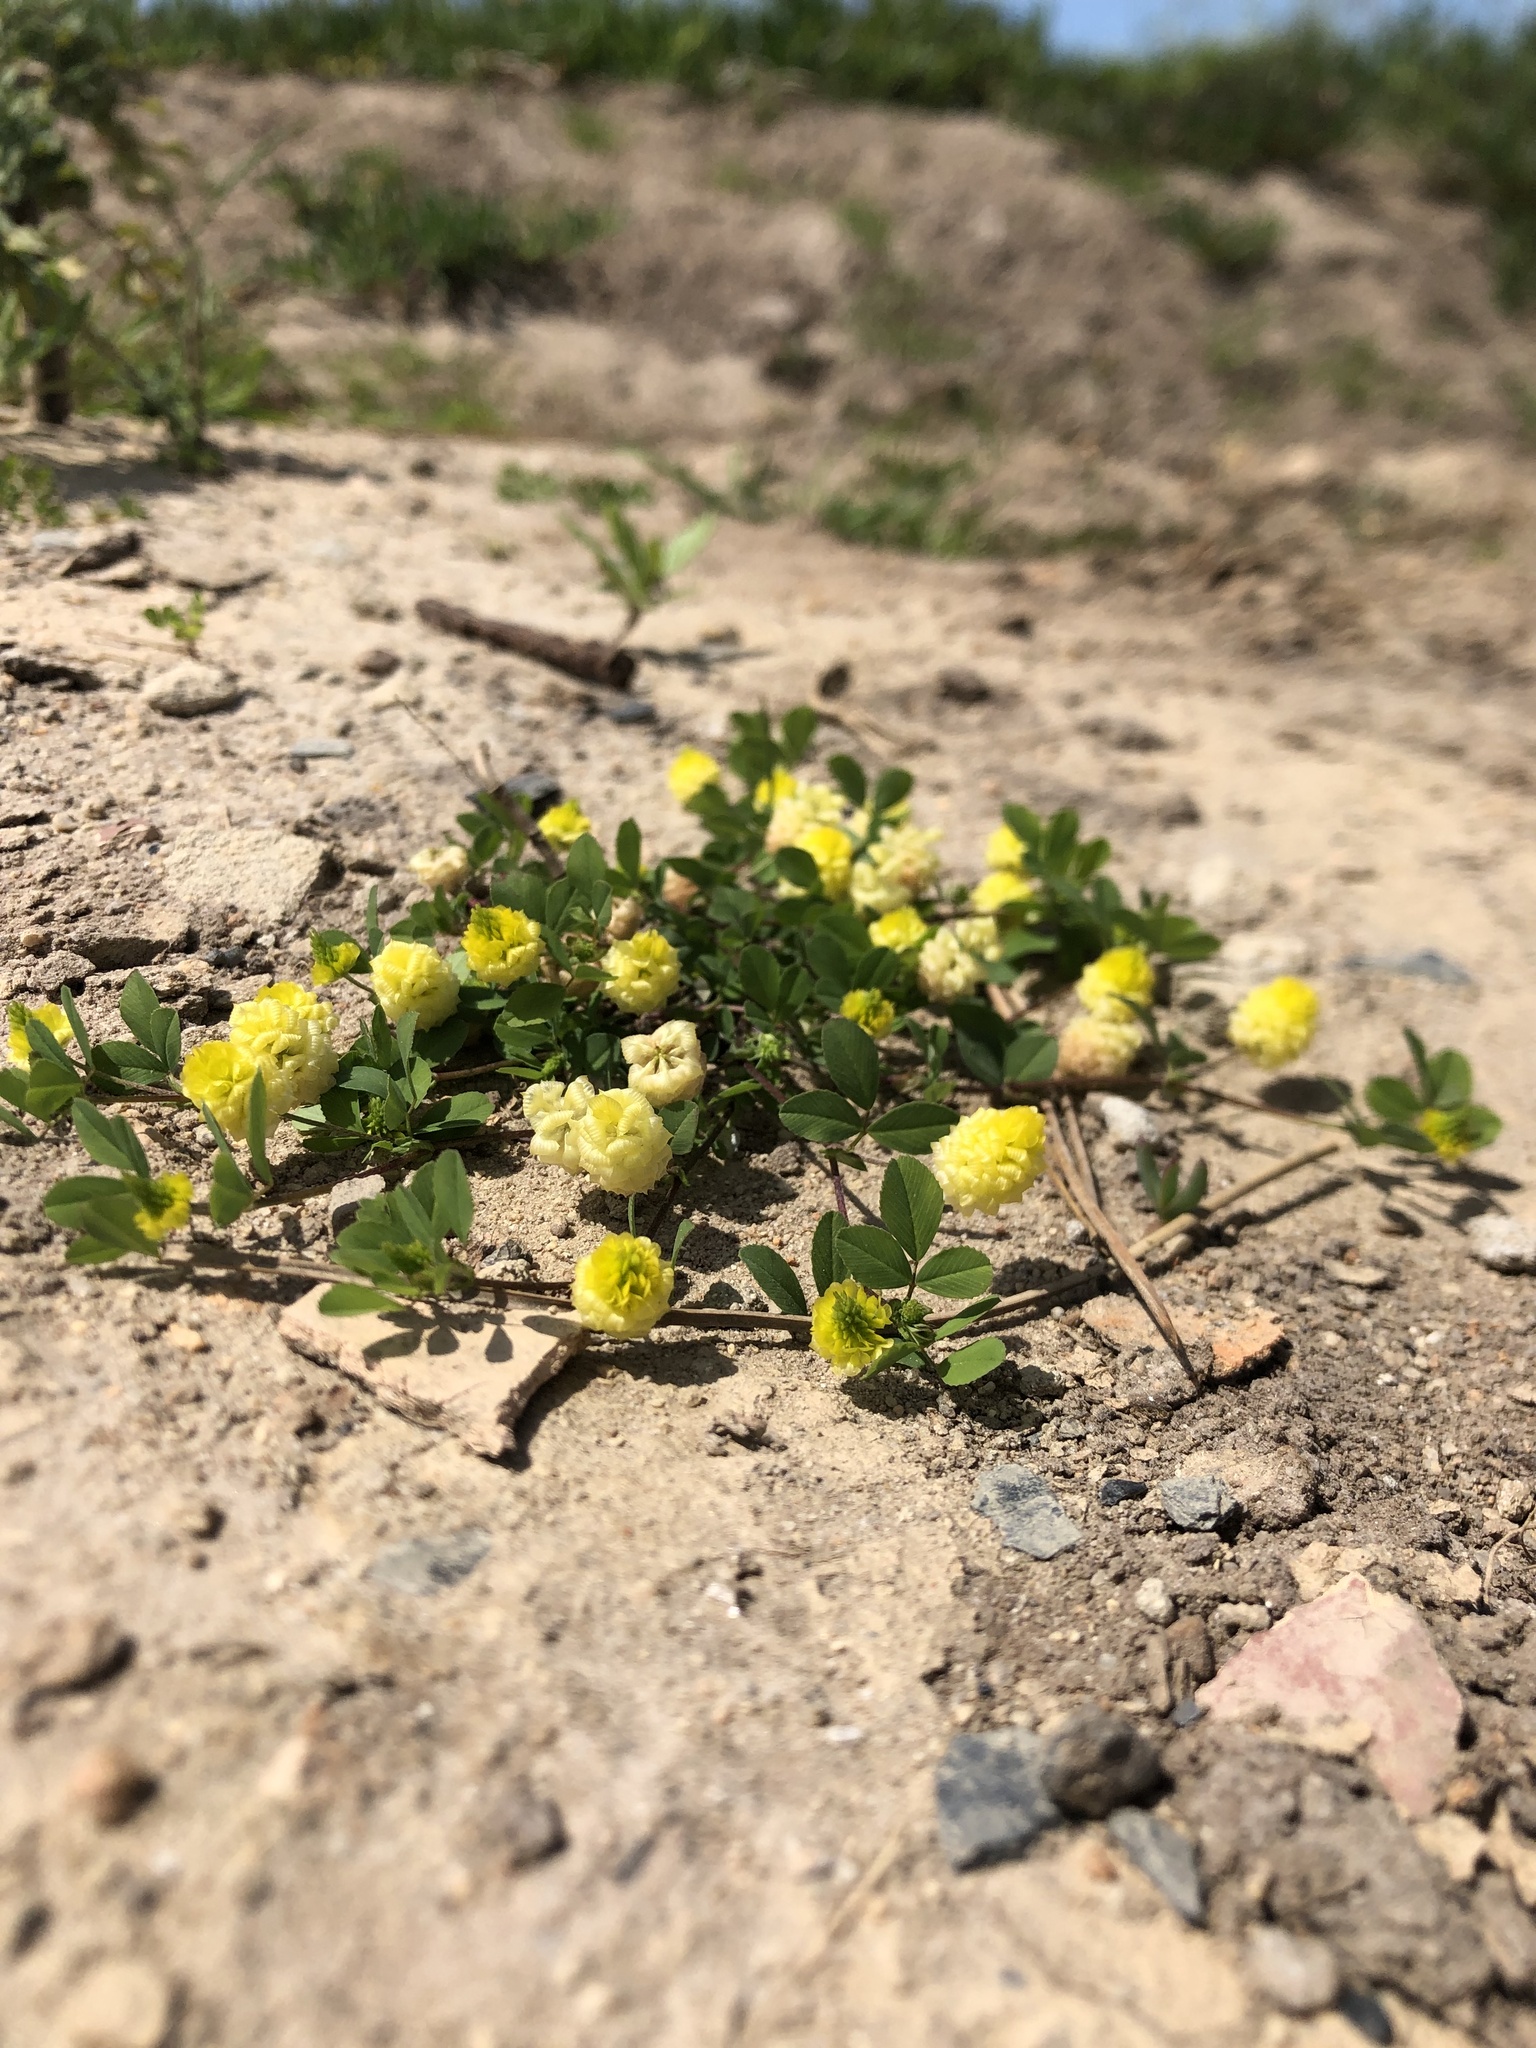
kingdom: Plantae
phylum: Tracheophyta
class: Magnoliopsida
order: Fabales
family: Fabaceae
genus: Trifolium
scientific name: Trifolium campestre
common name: Field clover
